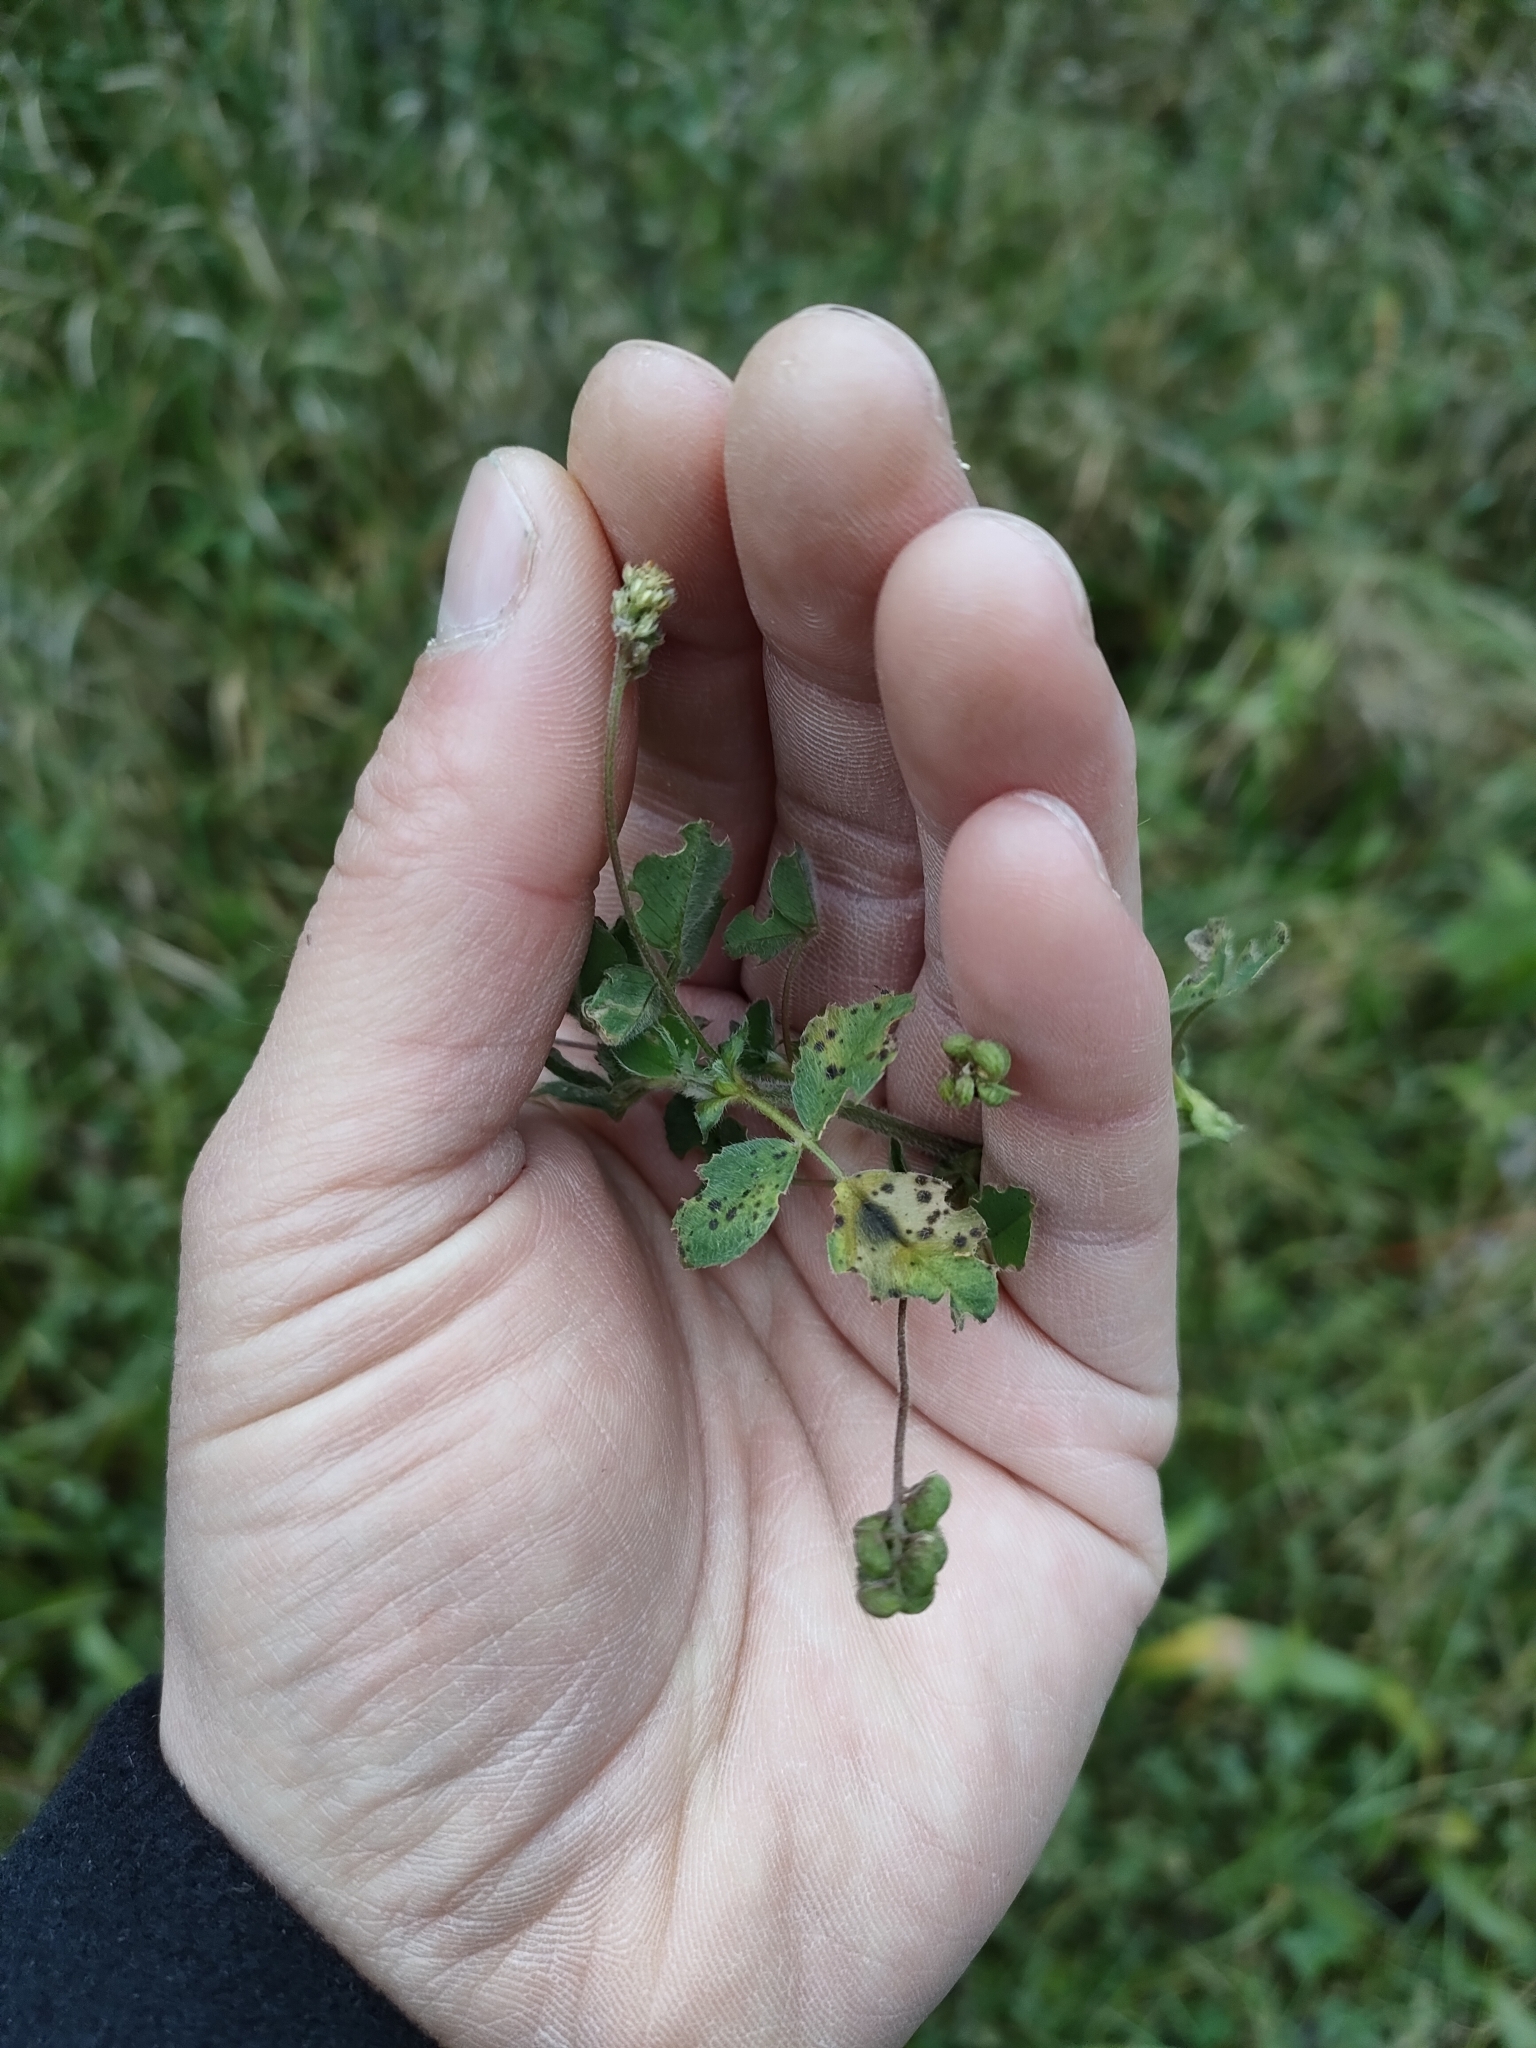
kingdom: Plantae
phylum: Tracheophyta
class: Magnoliopsida
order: Fabales
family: Fabaceae
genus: Medicago
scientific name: Medicago lupulina
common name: Black medick
